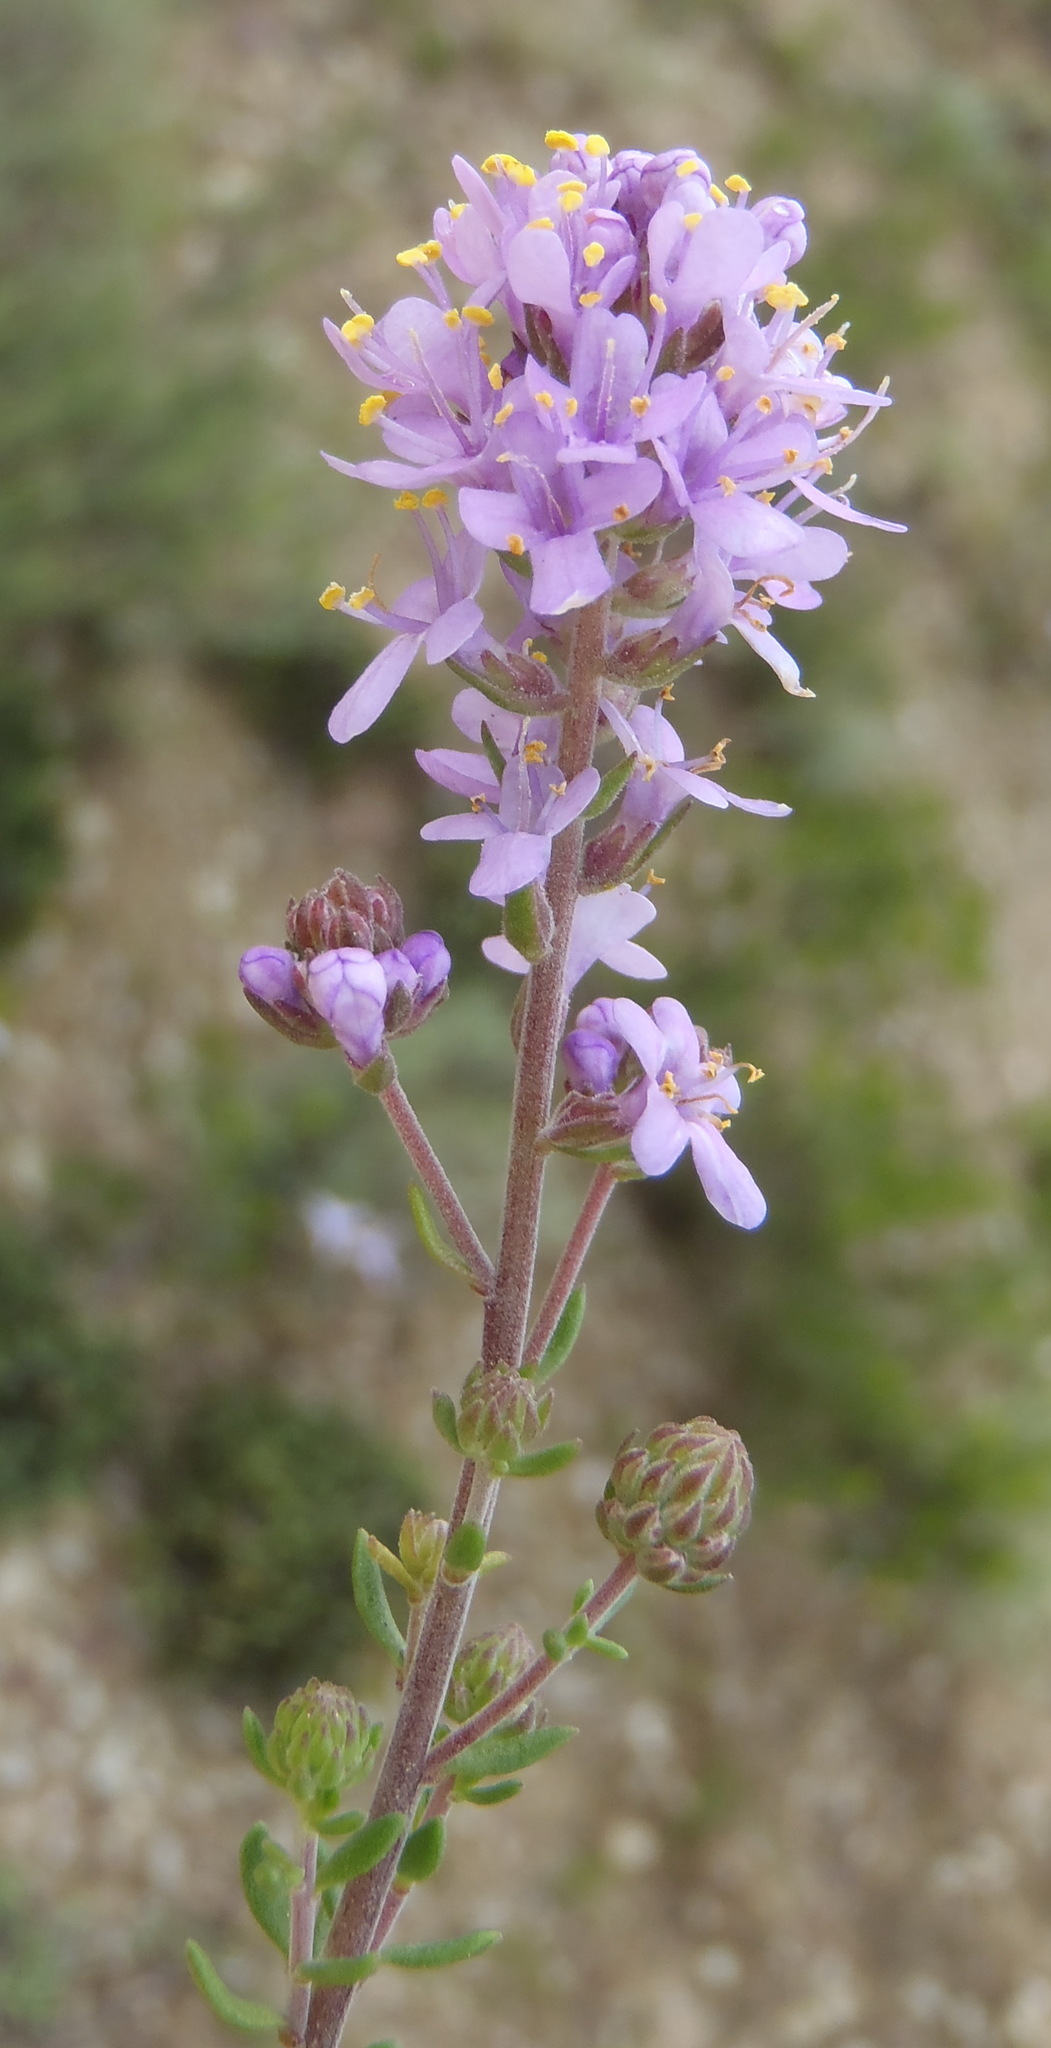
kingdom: Plantae
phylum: Tracheophyta
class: Magnoliopsida
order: Lamiales
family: Scrophulariaceae
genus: Selago
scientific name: Selago fourcadei
